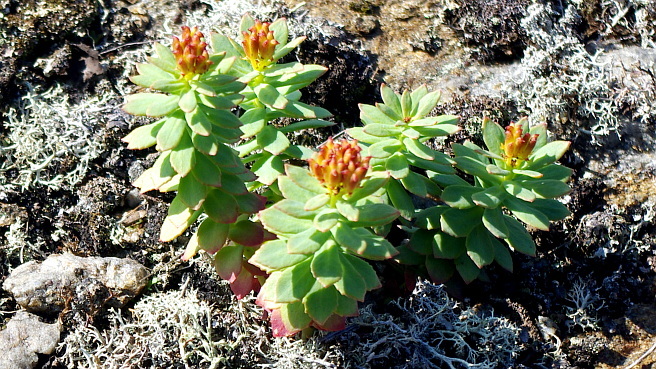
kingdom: Plantae
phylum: Tracheophyta
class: Magnoliopsida
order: Saxifragales
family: Crassulaceae
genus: Rhodiola
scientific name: Rhodiola rosea
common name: Roseroot
